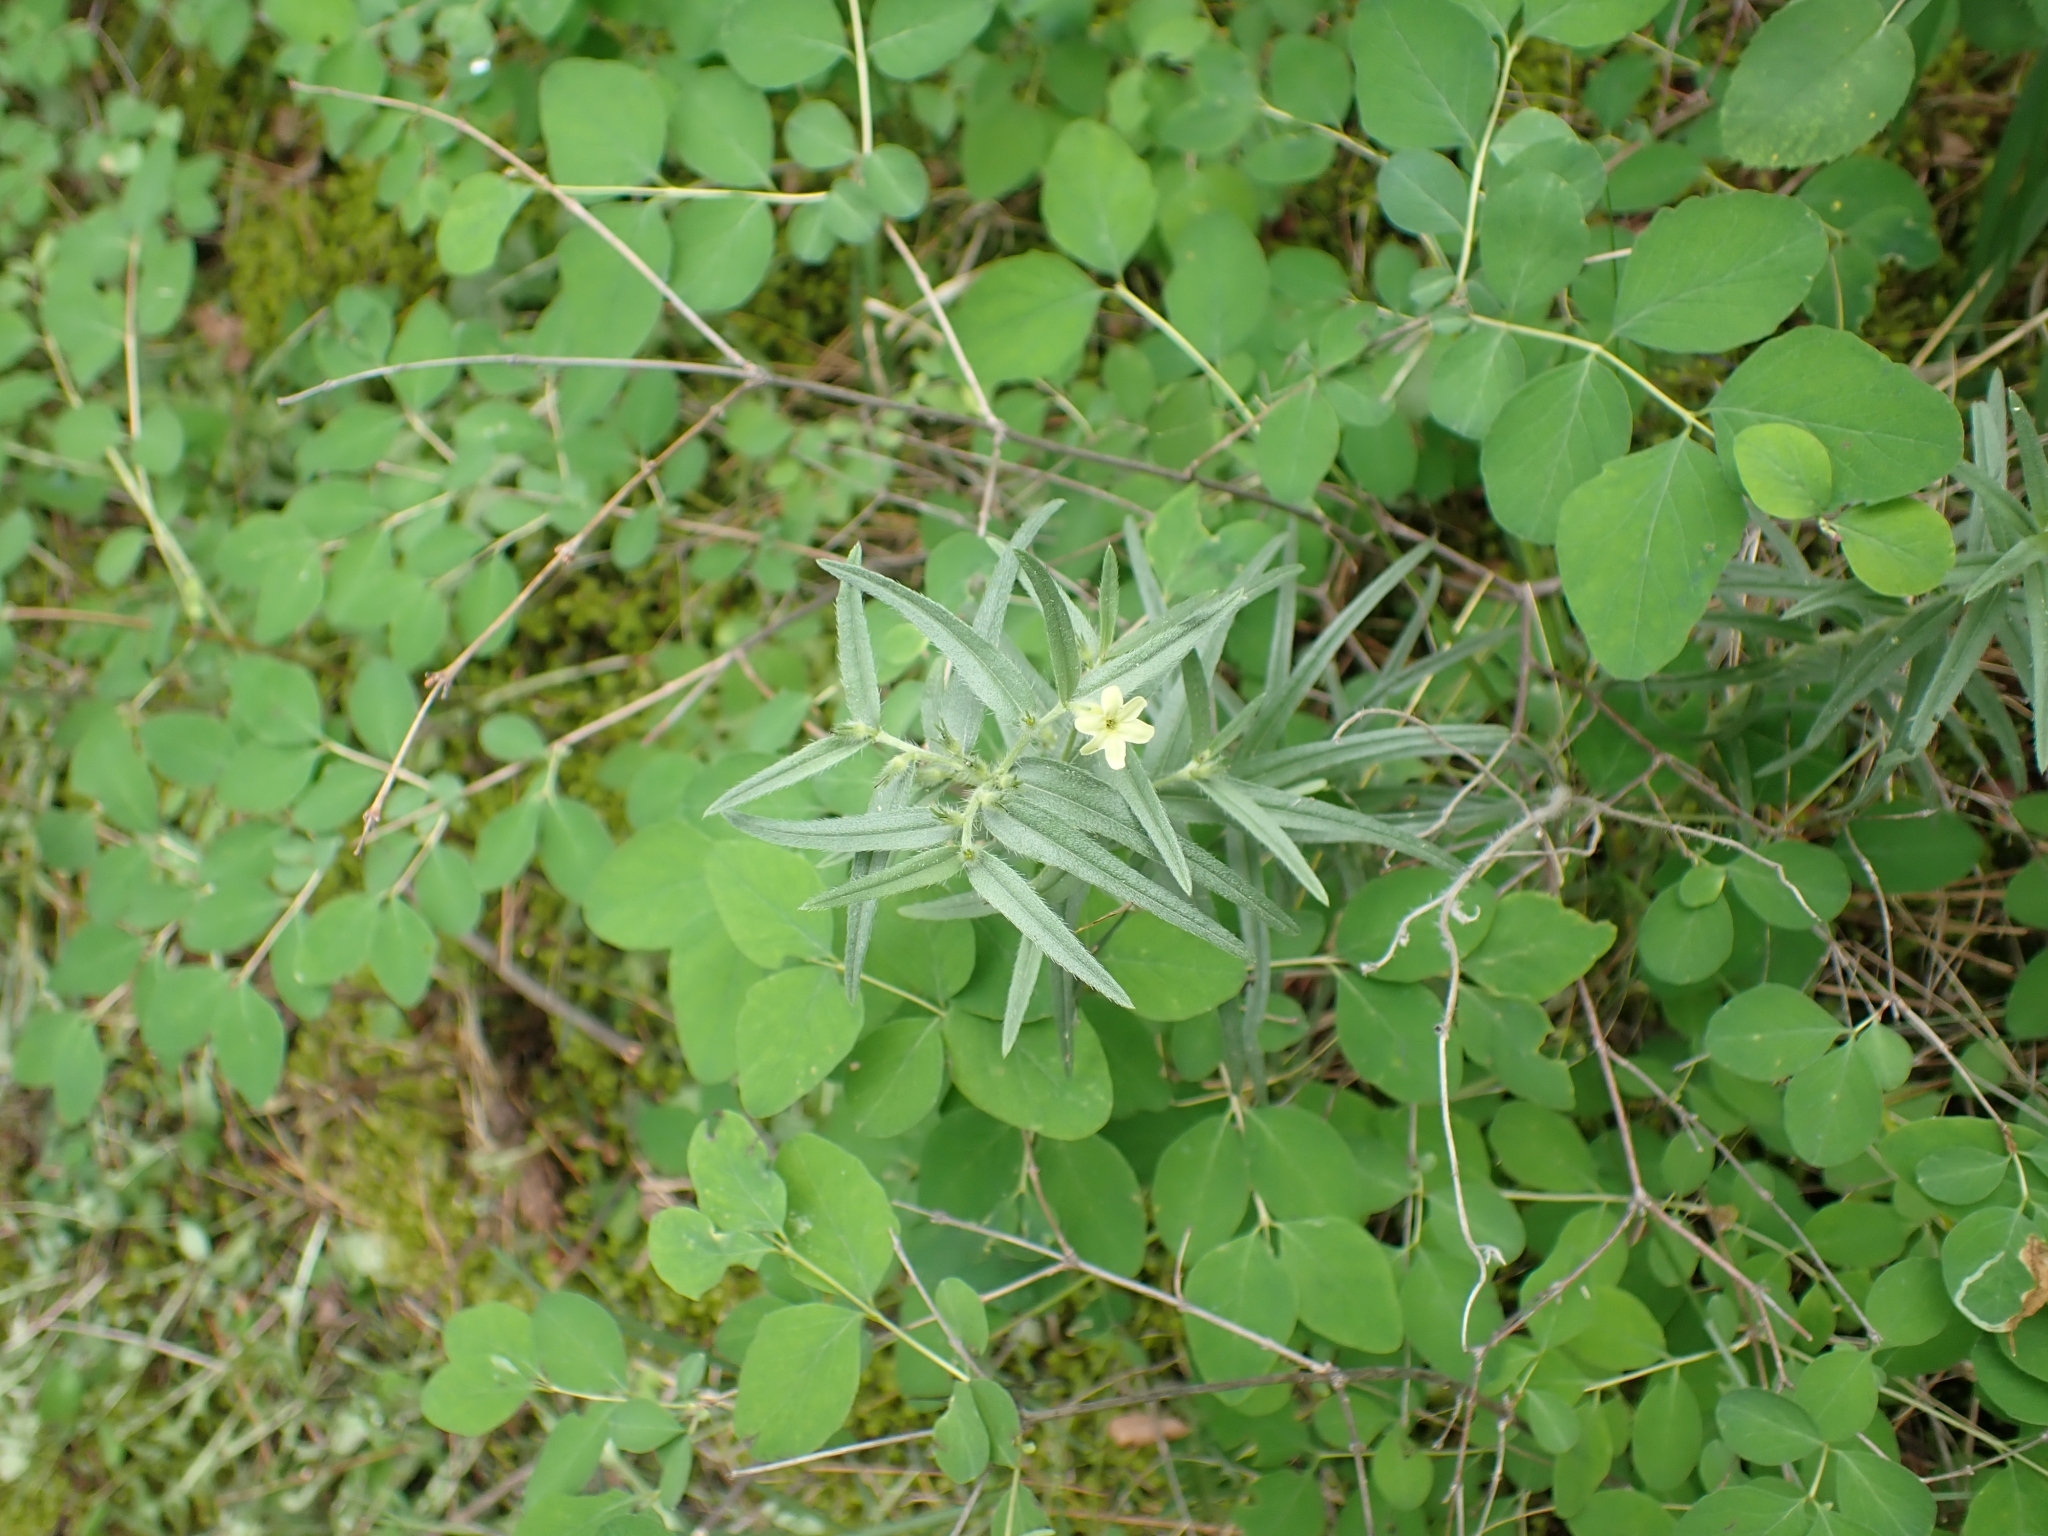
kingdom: Plantae
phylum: Tracheophyta
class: Magnoliopsida
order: Boraginales
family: Boraginaceae
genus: Lithospermum
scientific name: Lithospermum ruderale
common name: Western gromwell
